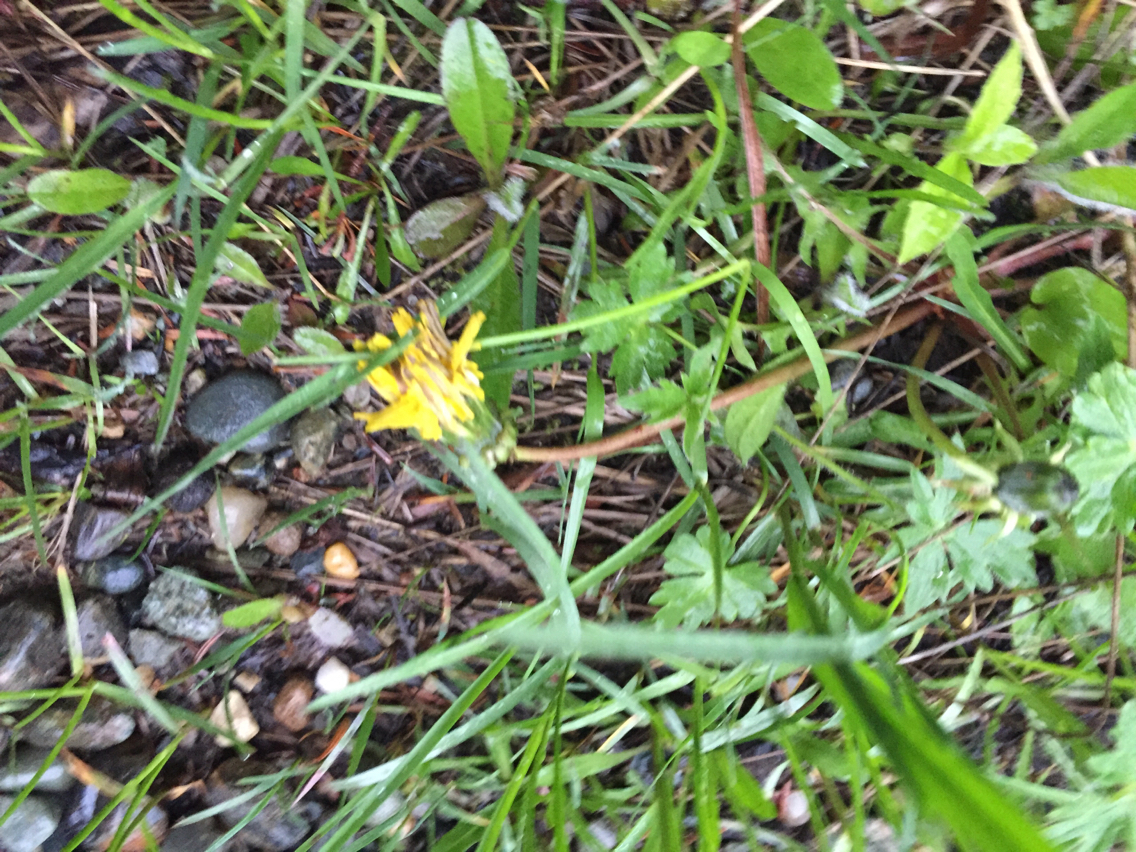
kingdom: Plantae
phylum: Tracheophyta
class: Magnoliopsida
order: Asterales
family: Asteraceae
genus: Taraxacum
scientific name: Taraxacum officinale
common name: Common dandelion
